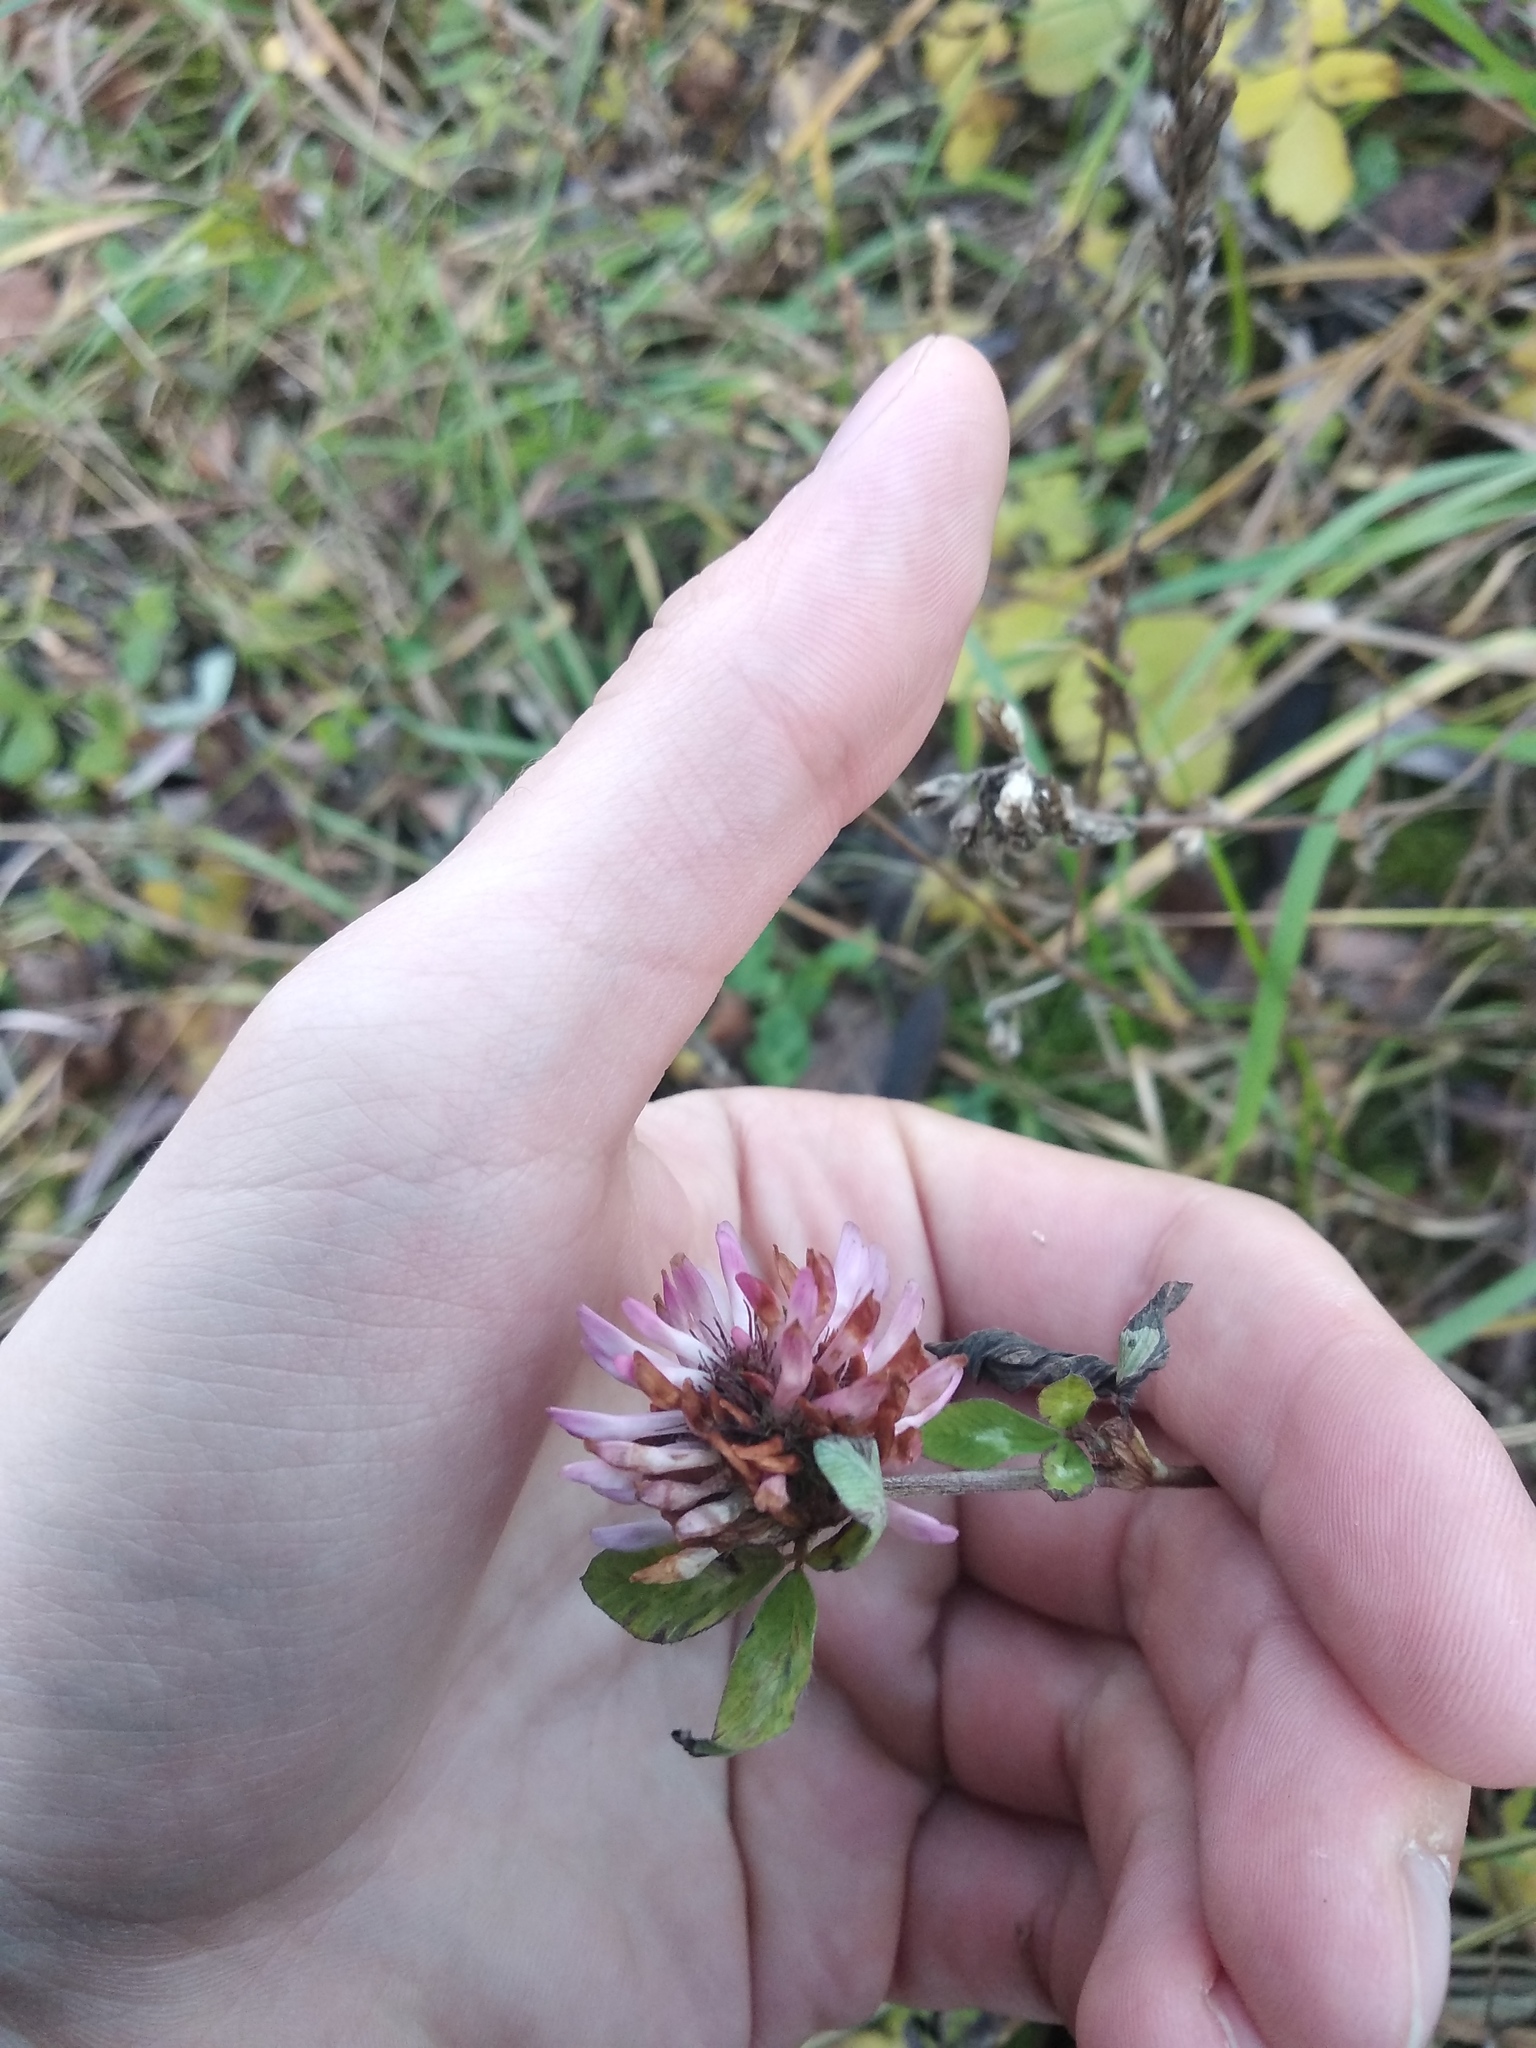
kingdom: Plantae
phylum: Tracheophyta
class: Magnoliopsida
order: Fabales
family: Fabaceae
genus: Trifolium
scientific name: Trifolium pratense
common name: Red clover
